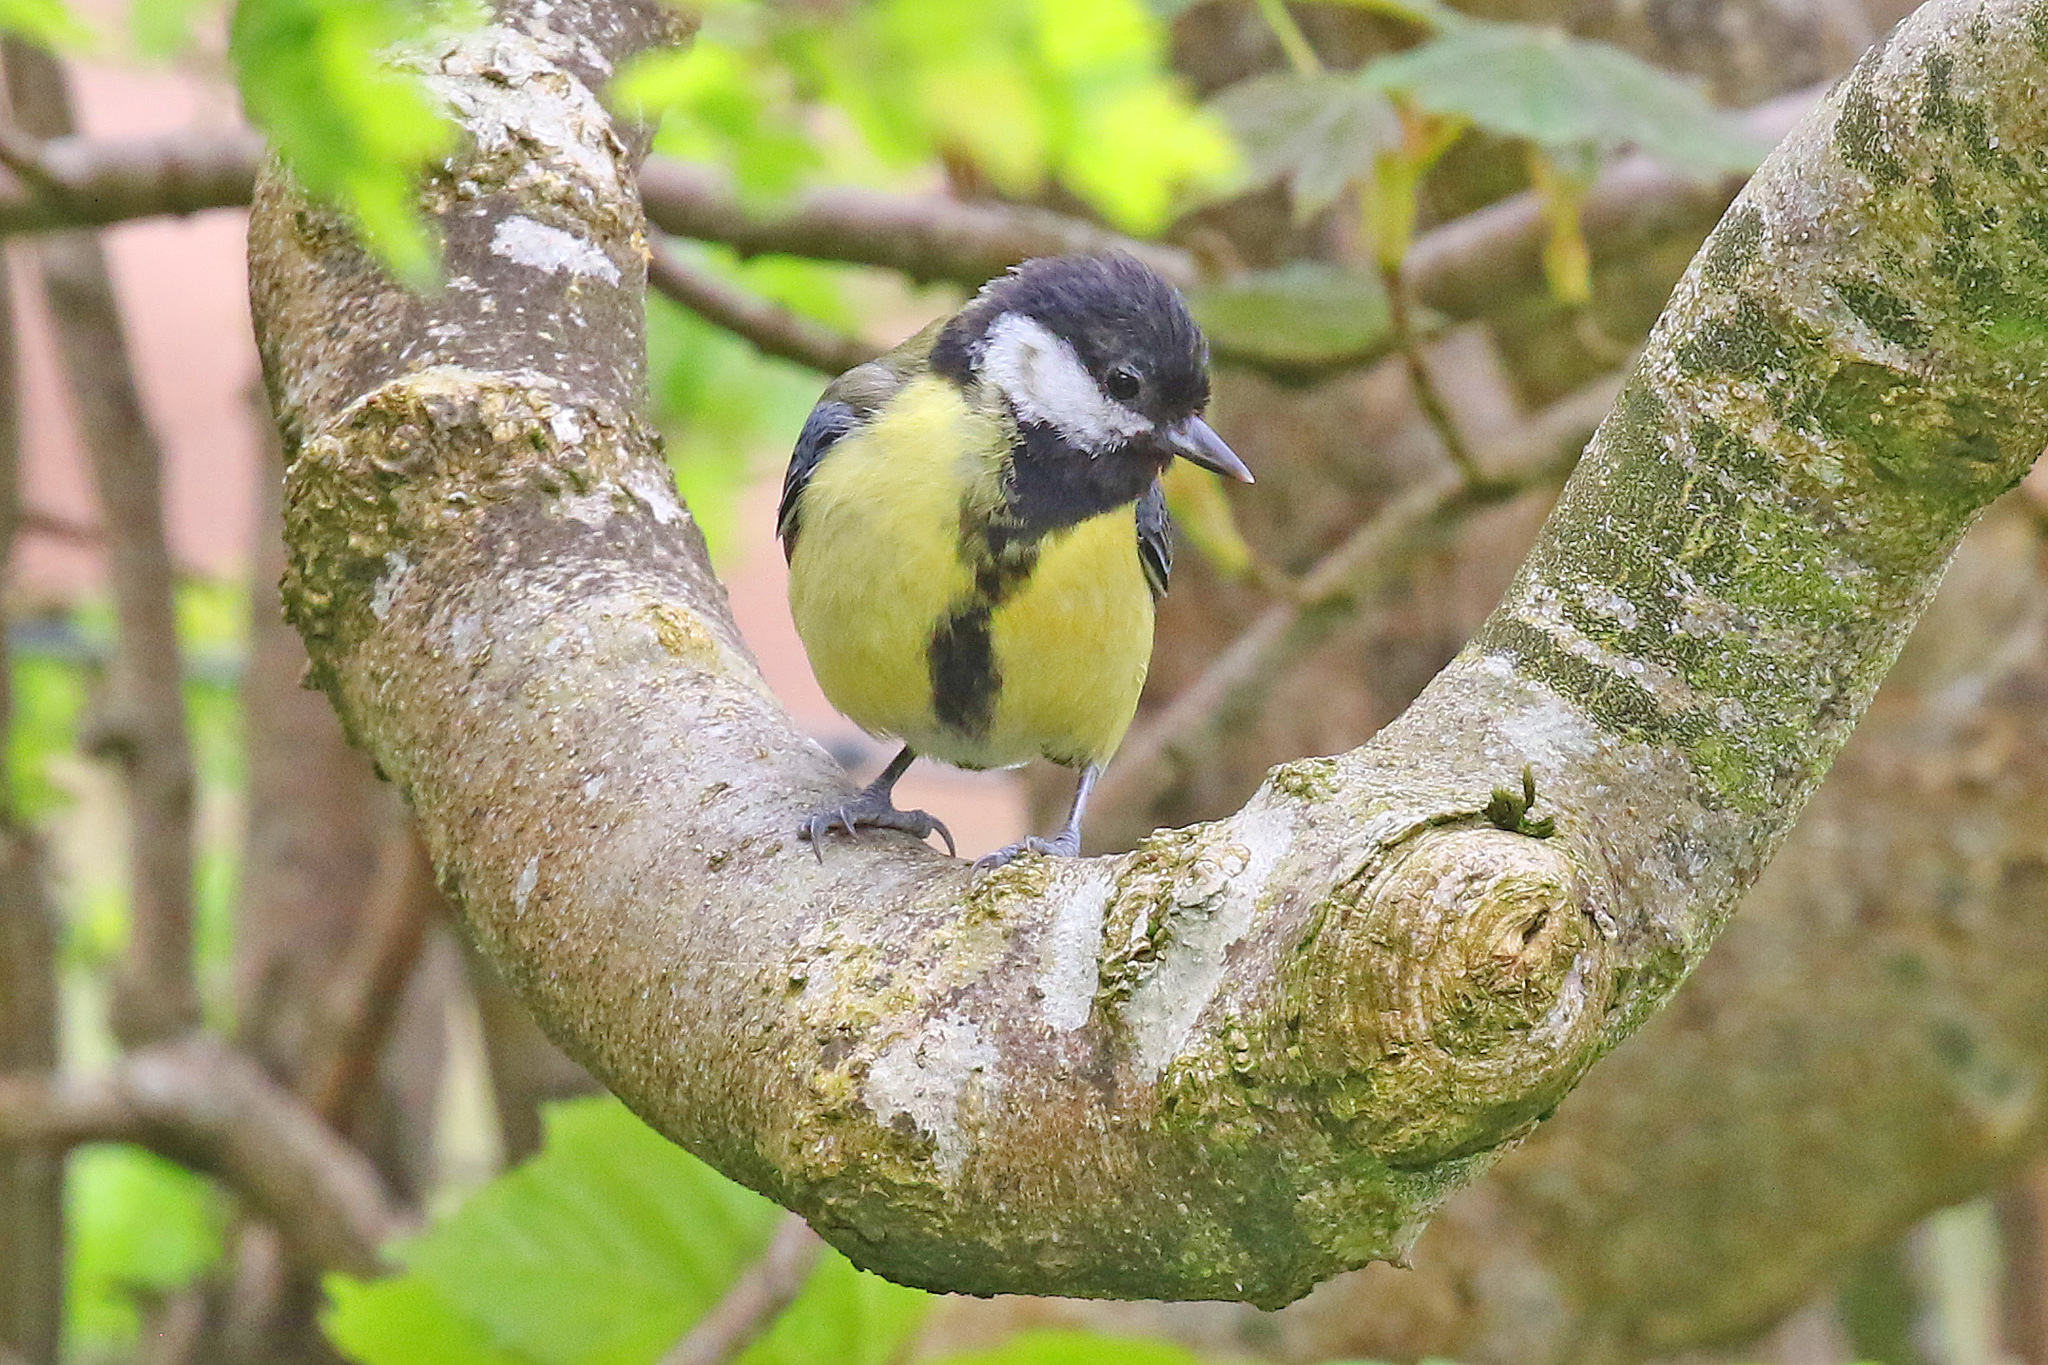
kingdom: Animalia
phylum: Chordata
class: Aves
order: Passeriformes
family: Paridae
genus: Parus
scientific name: Parus major
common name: Great tit
